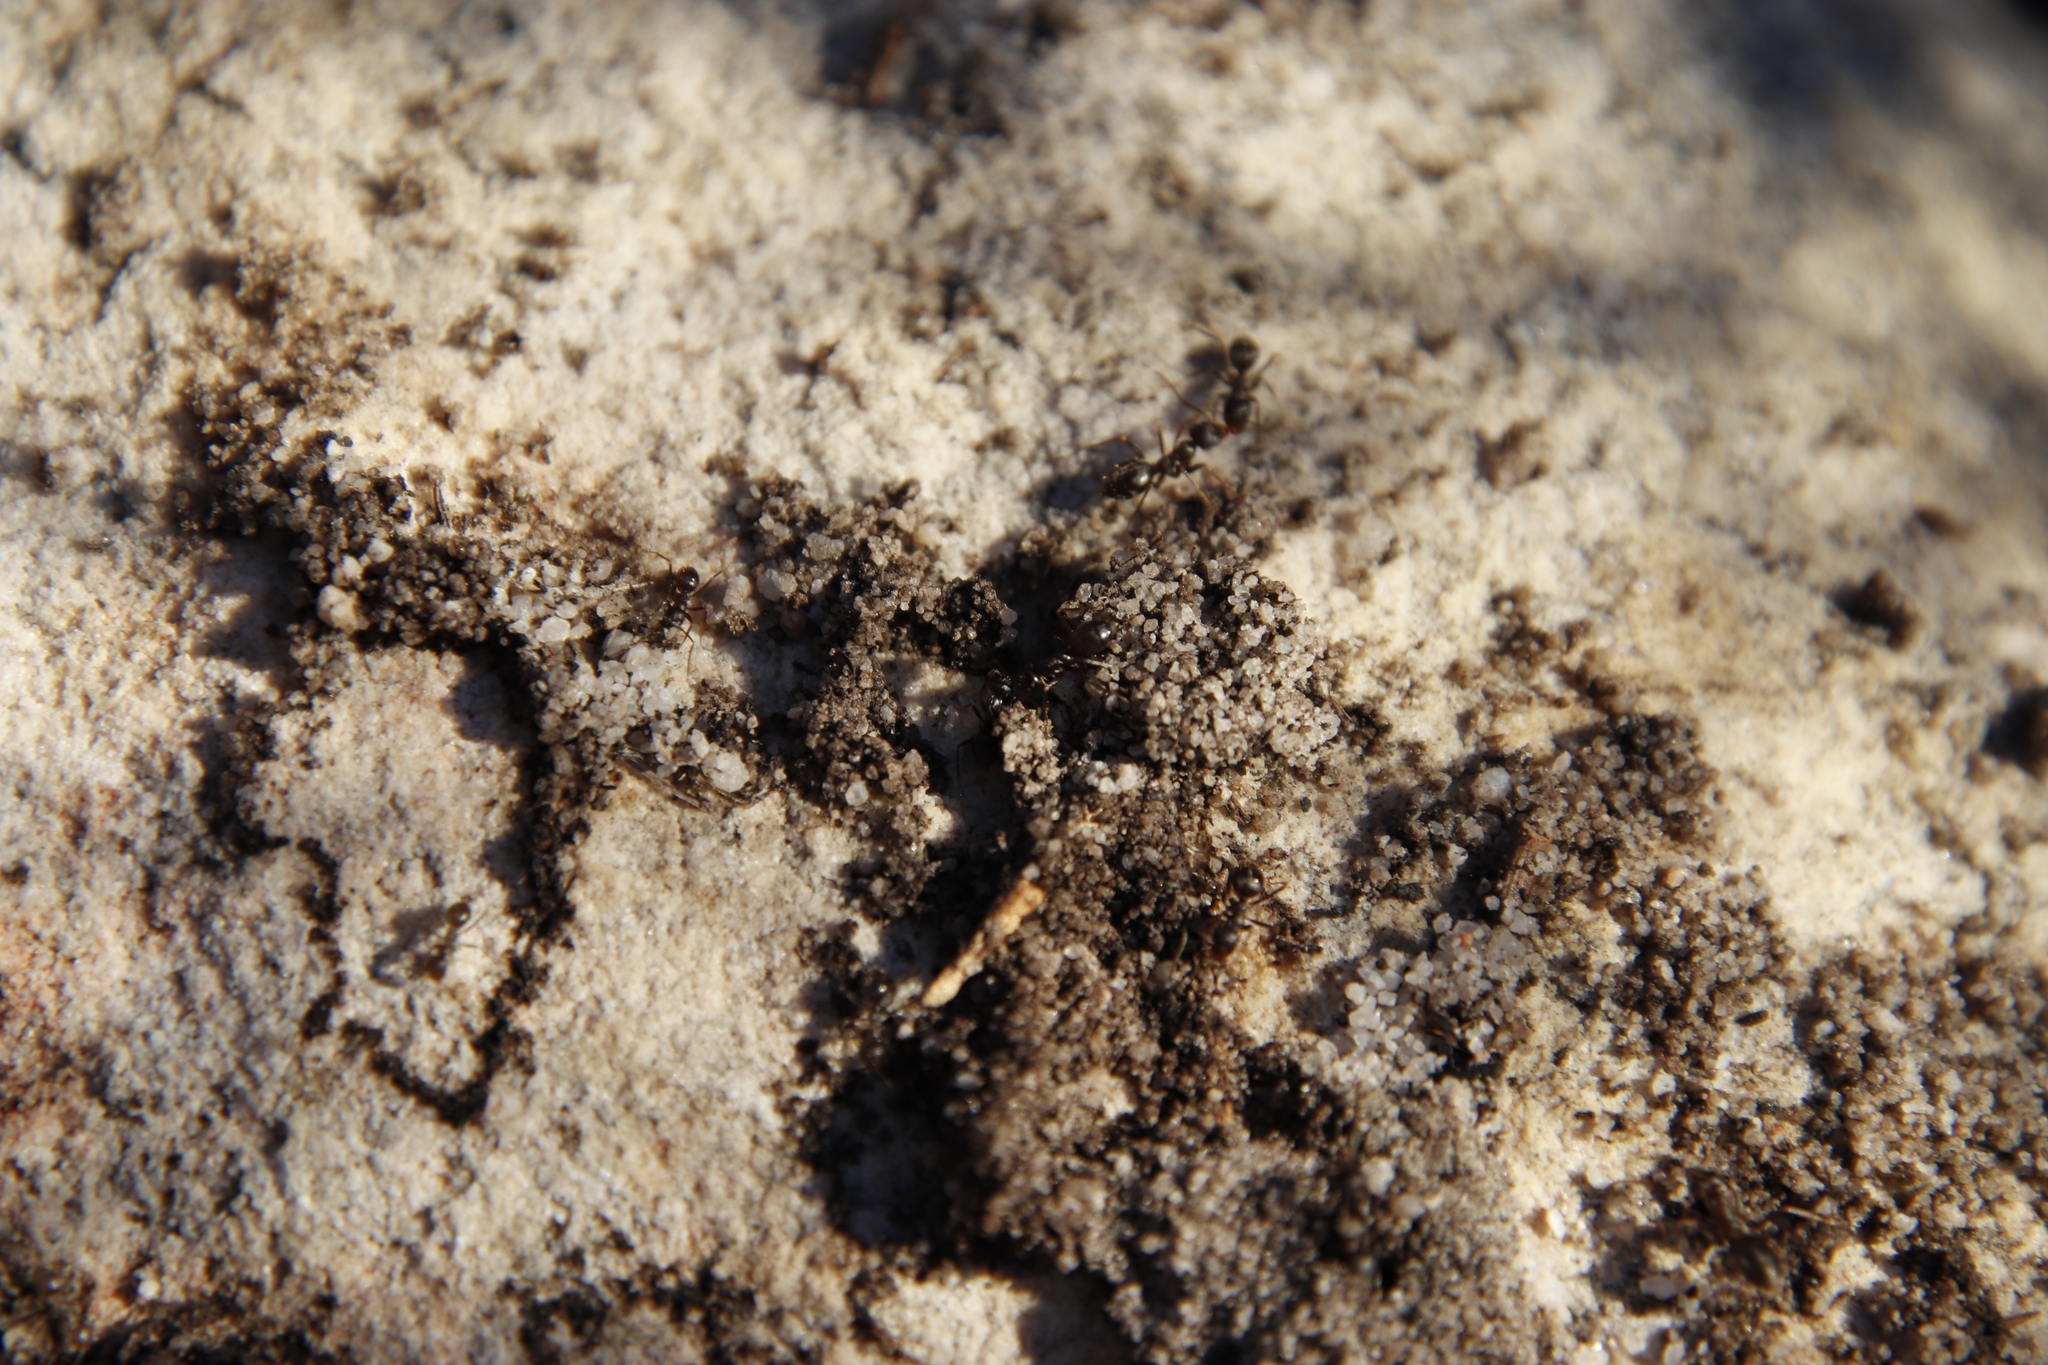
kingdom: Animalia
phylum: Arthropoda
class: Insecta
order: Hymenoptera
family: Formicidae
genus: Anoplolepis
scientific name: Anoplolepis steingroeveri
